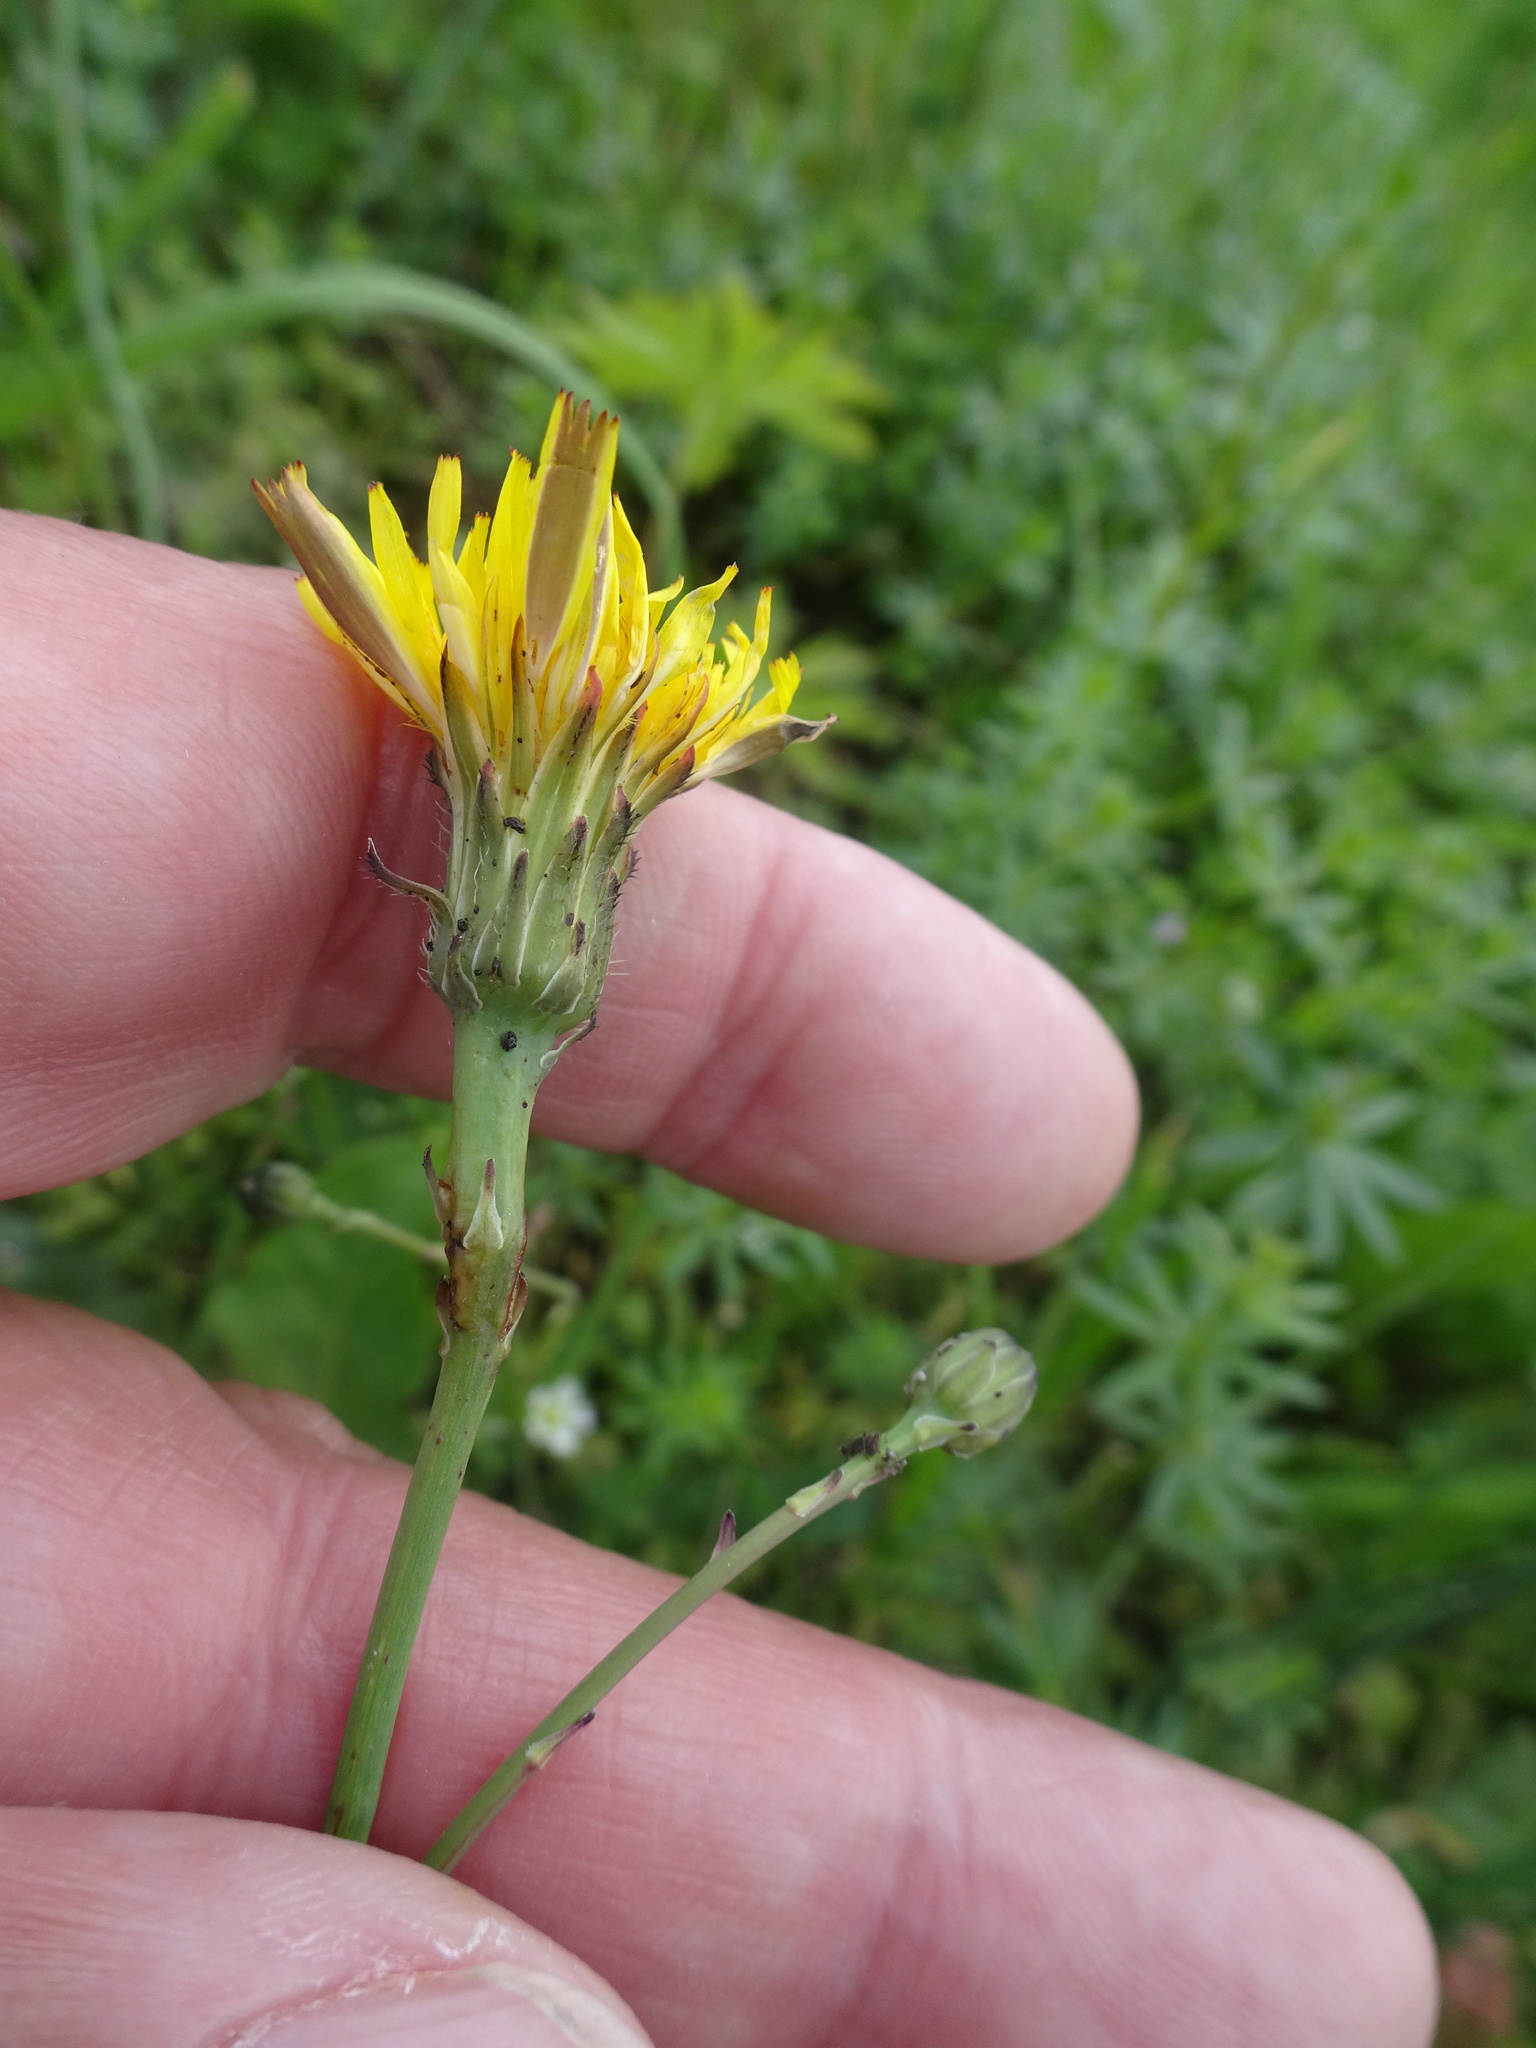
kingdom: Plantae
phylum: Tracheophyta
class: Magnoliopsida
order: Asterales
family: Asteraceae
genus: Hypochaeris
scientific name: Hypochaeris radicata
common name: Flatweed
